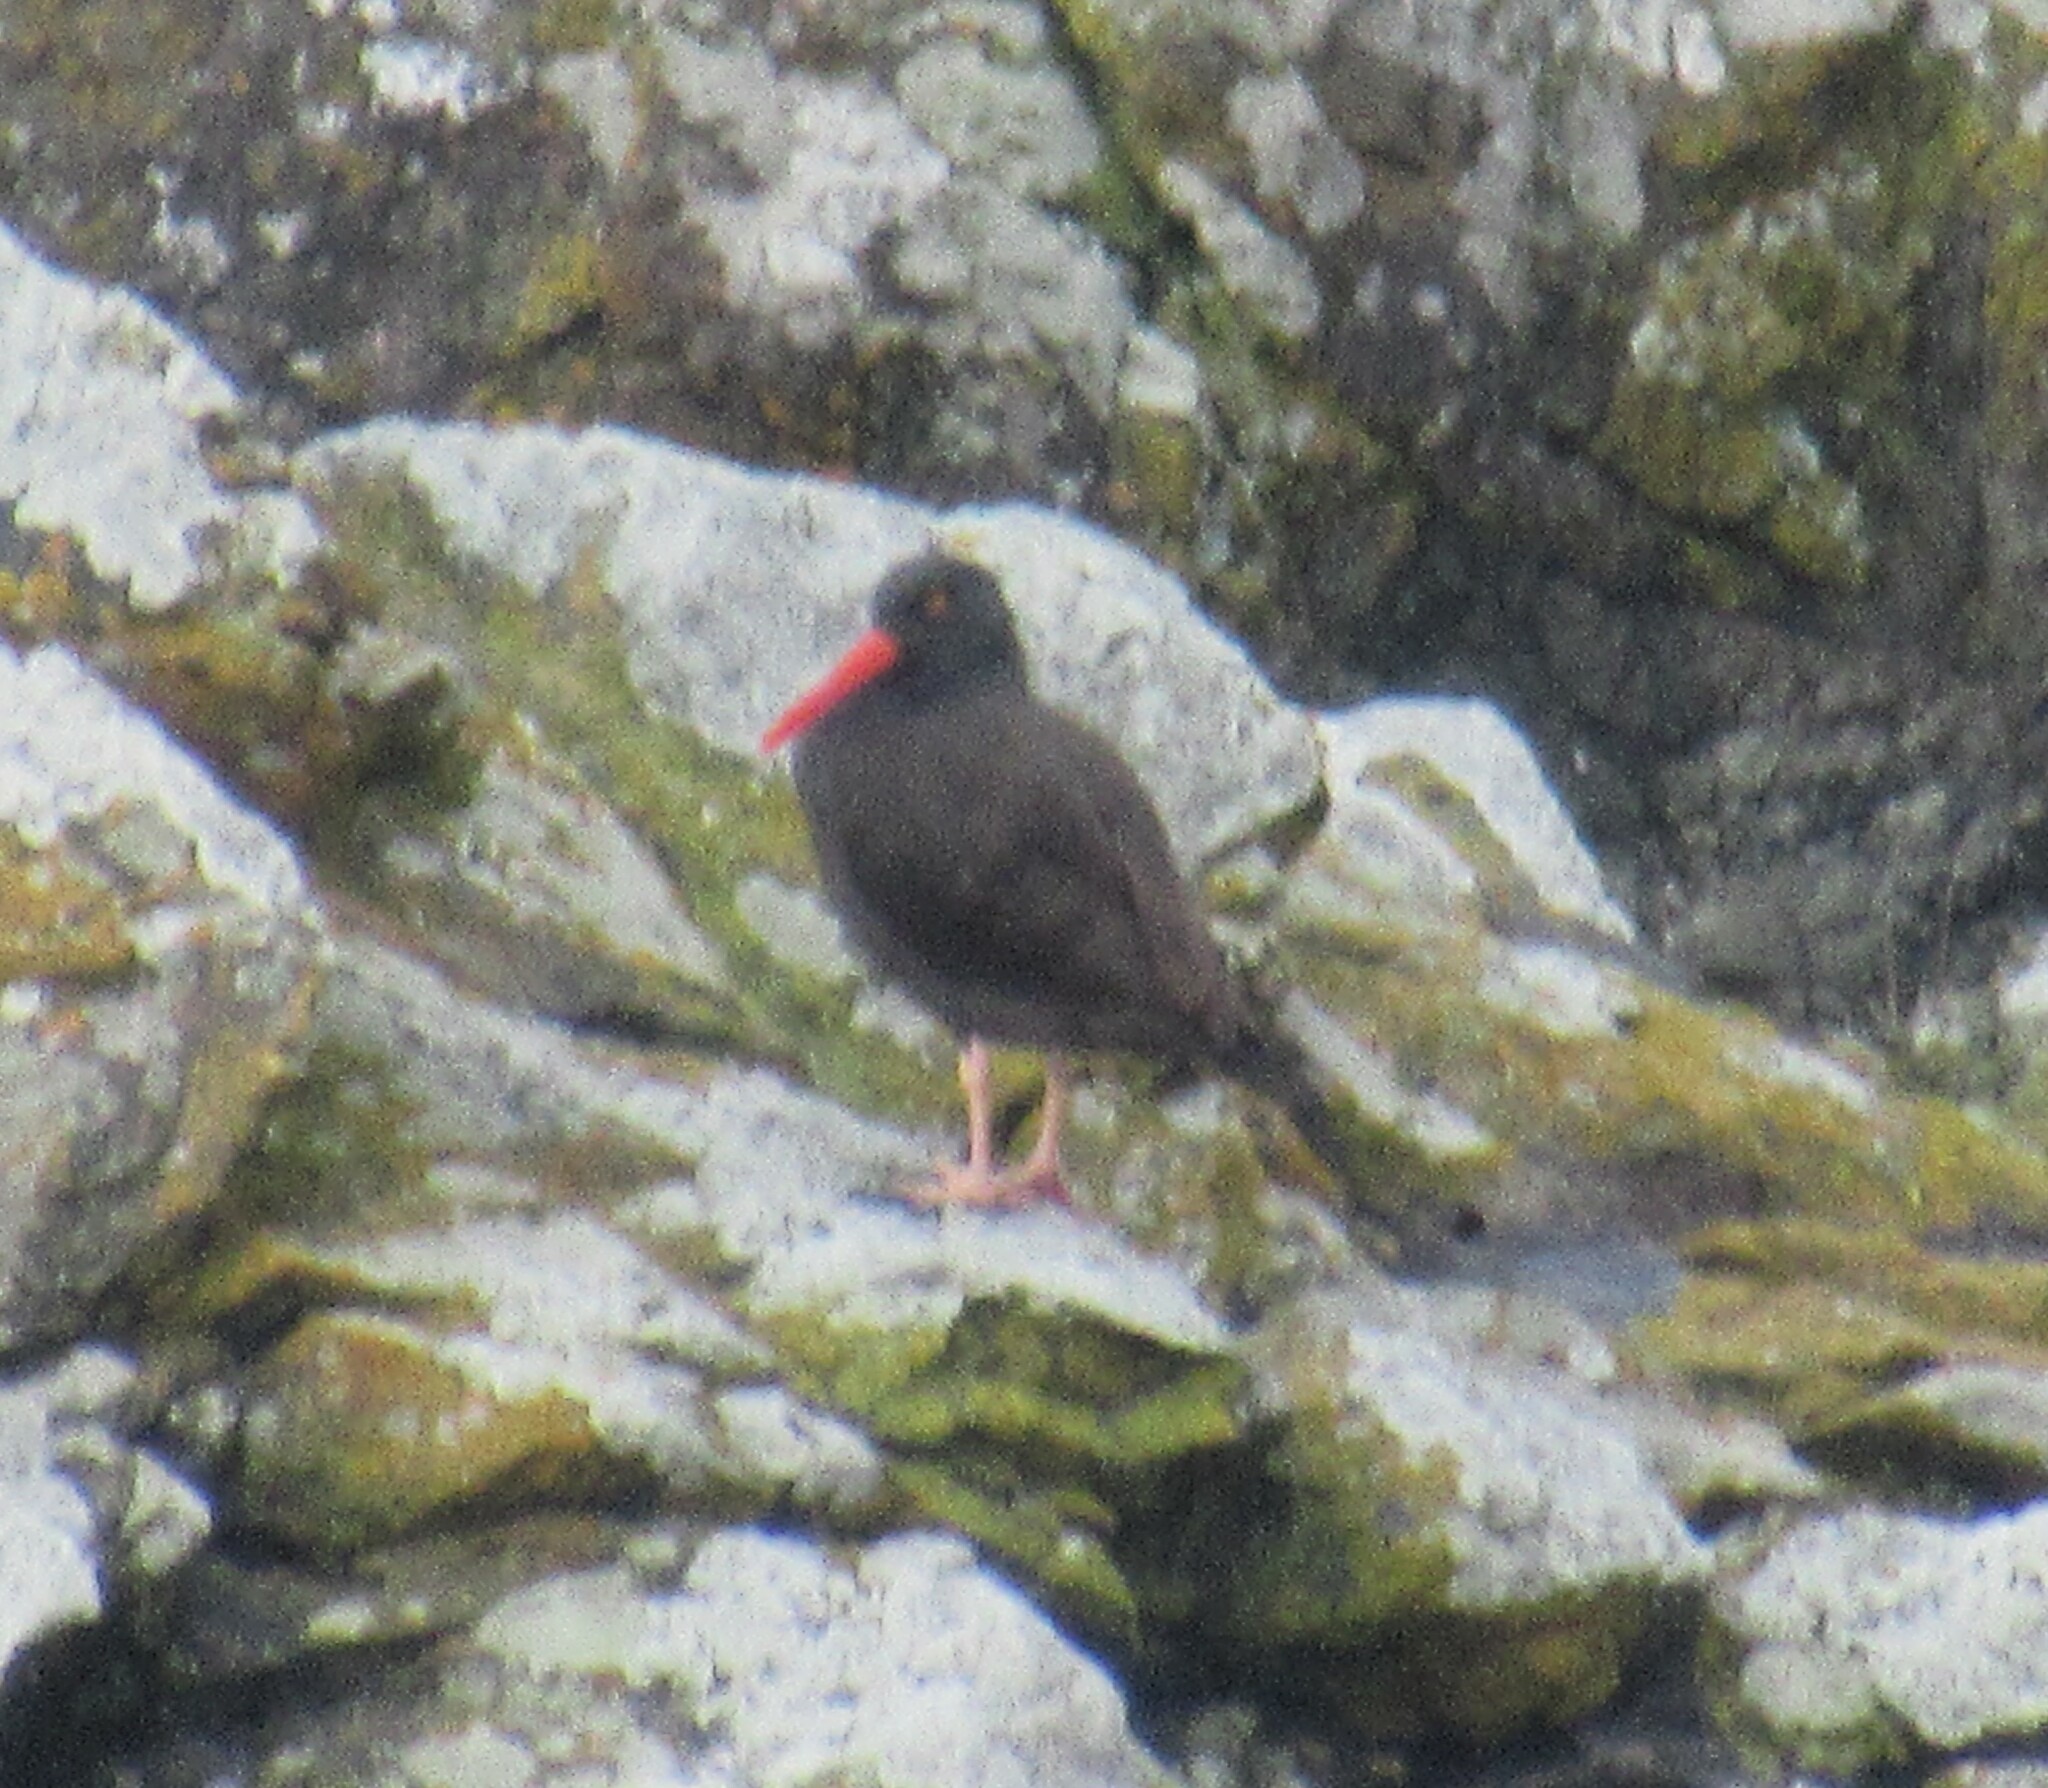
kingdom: Animalia
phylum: Chordata
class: Aves
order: Charadriiformes
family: Haematopodidae
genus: Haematopus
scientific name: Haematopus bachmani
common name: Black oystercatcher
